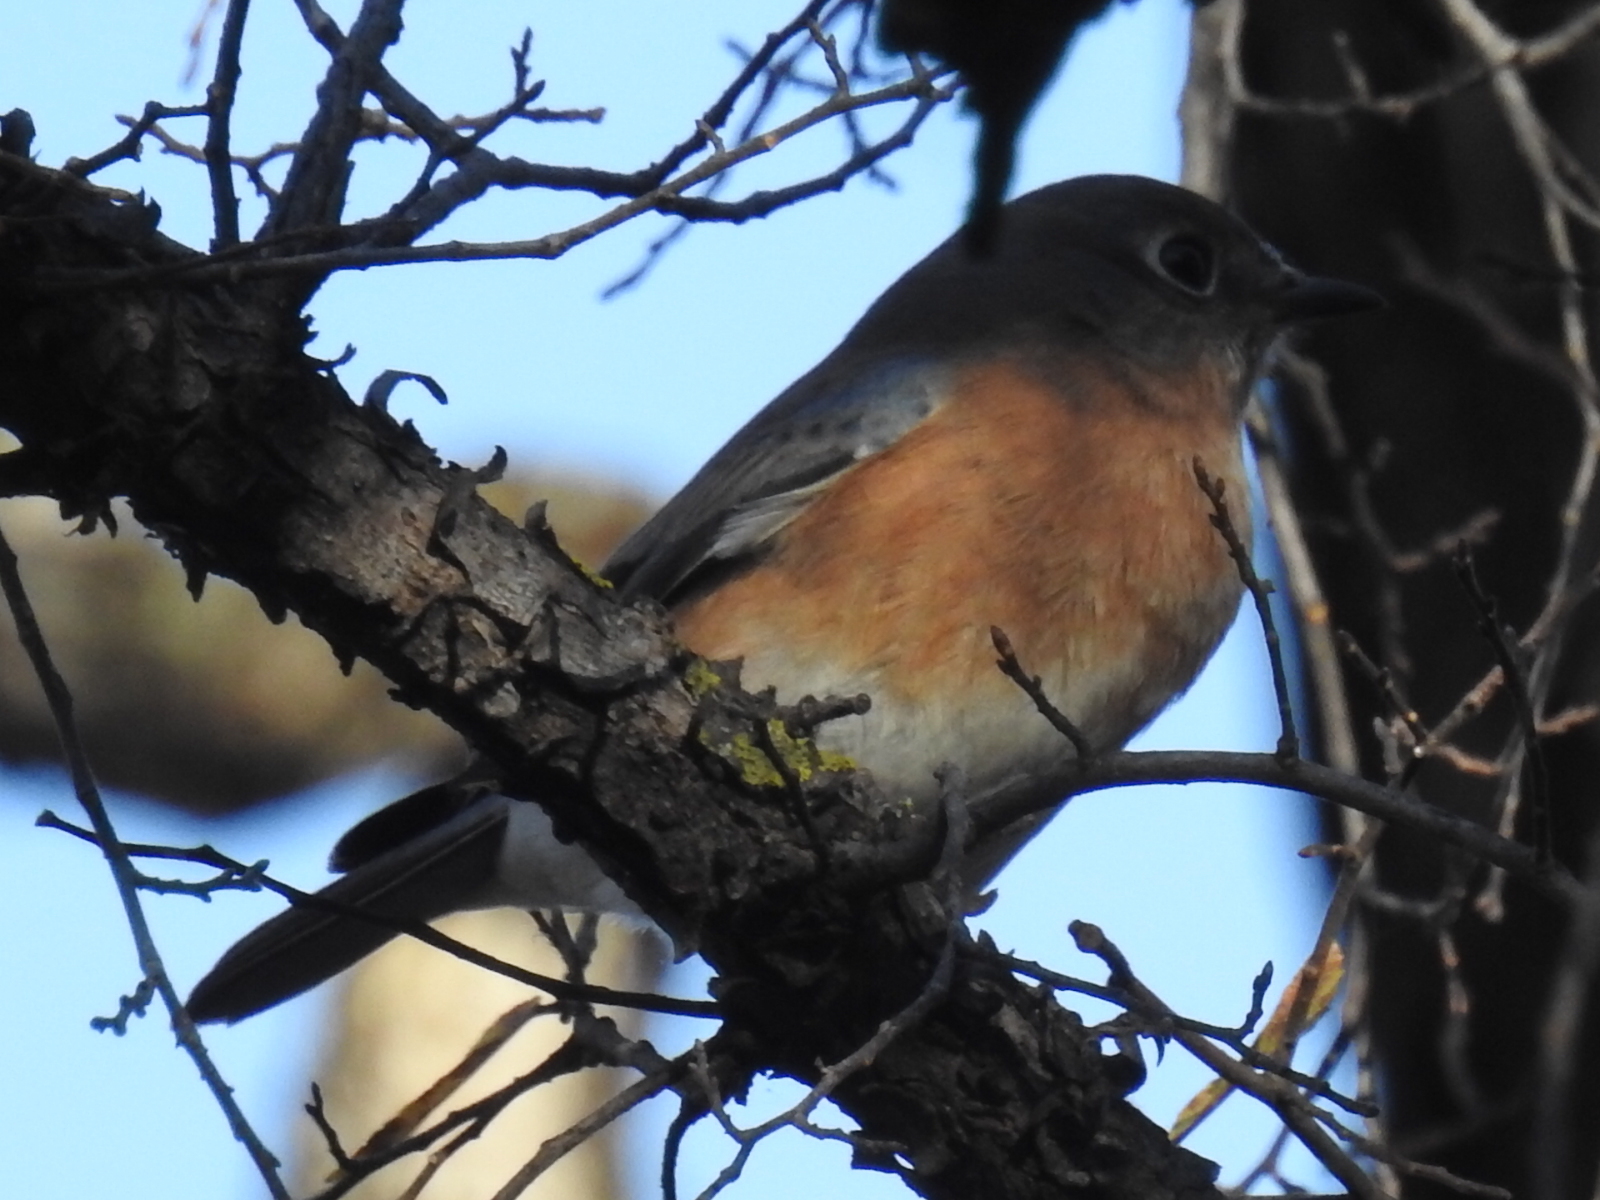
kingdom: Animalia
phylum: Chordata
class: Aves
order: Passeriformes
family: Turdidae
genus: Sialia
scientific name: Sialia sialis
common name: Eastern bluebird
